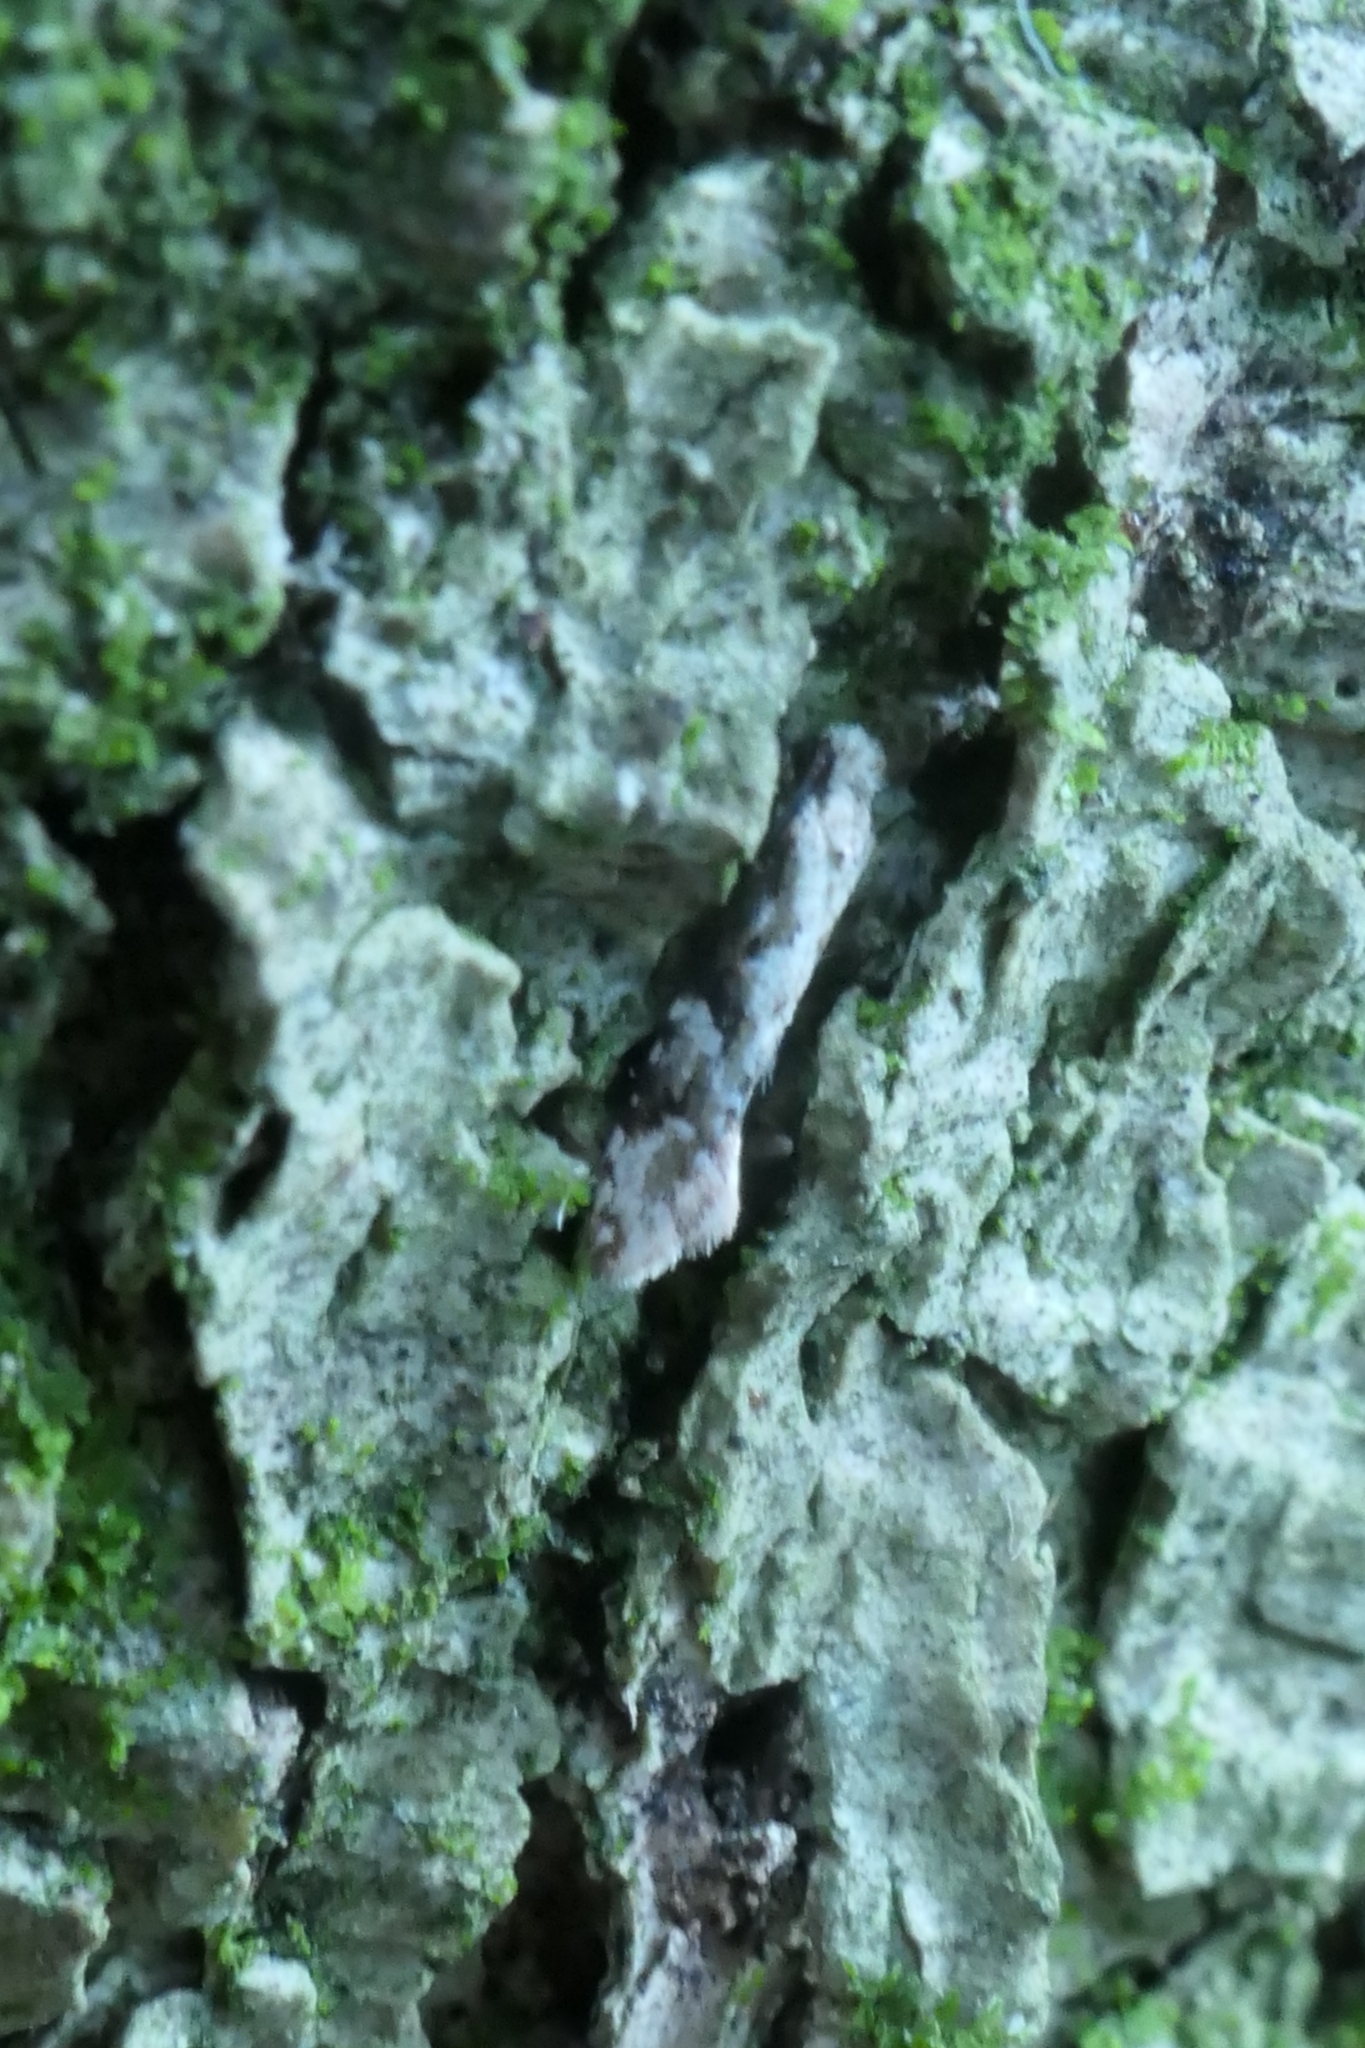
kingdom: Animalia
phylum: Arthropoda
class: Insecta
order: Lepidoptera
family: Tineidae
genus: Crypsitricha
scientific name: Crypsitricha mesotypa
